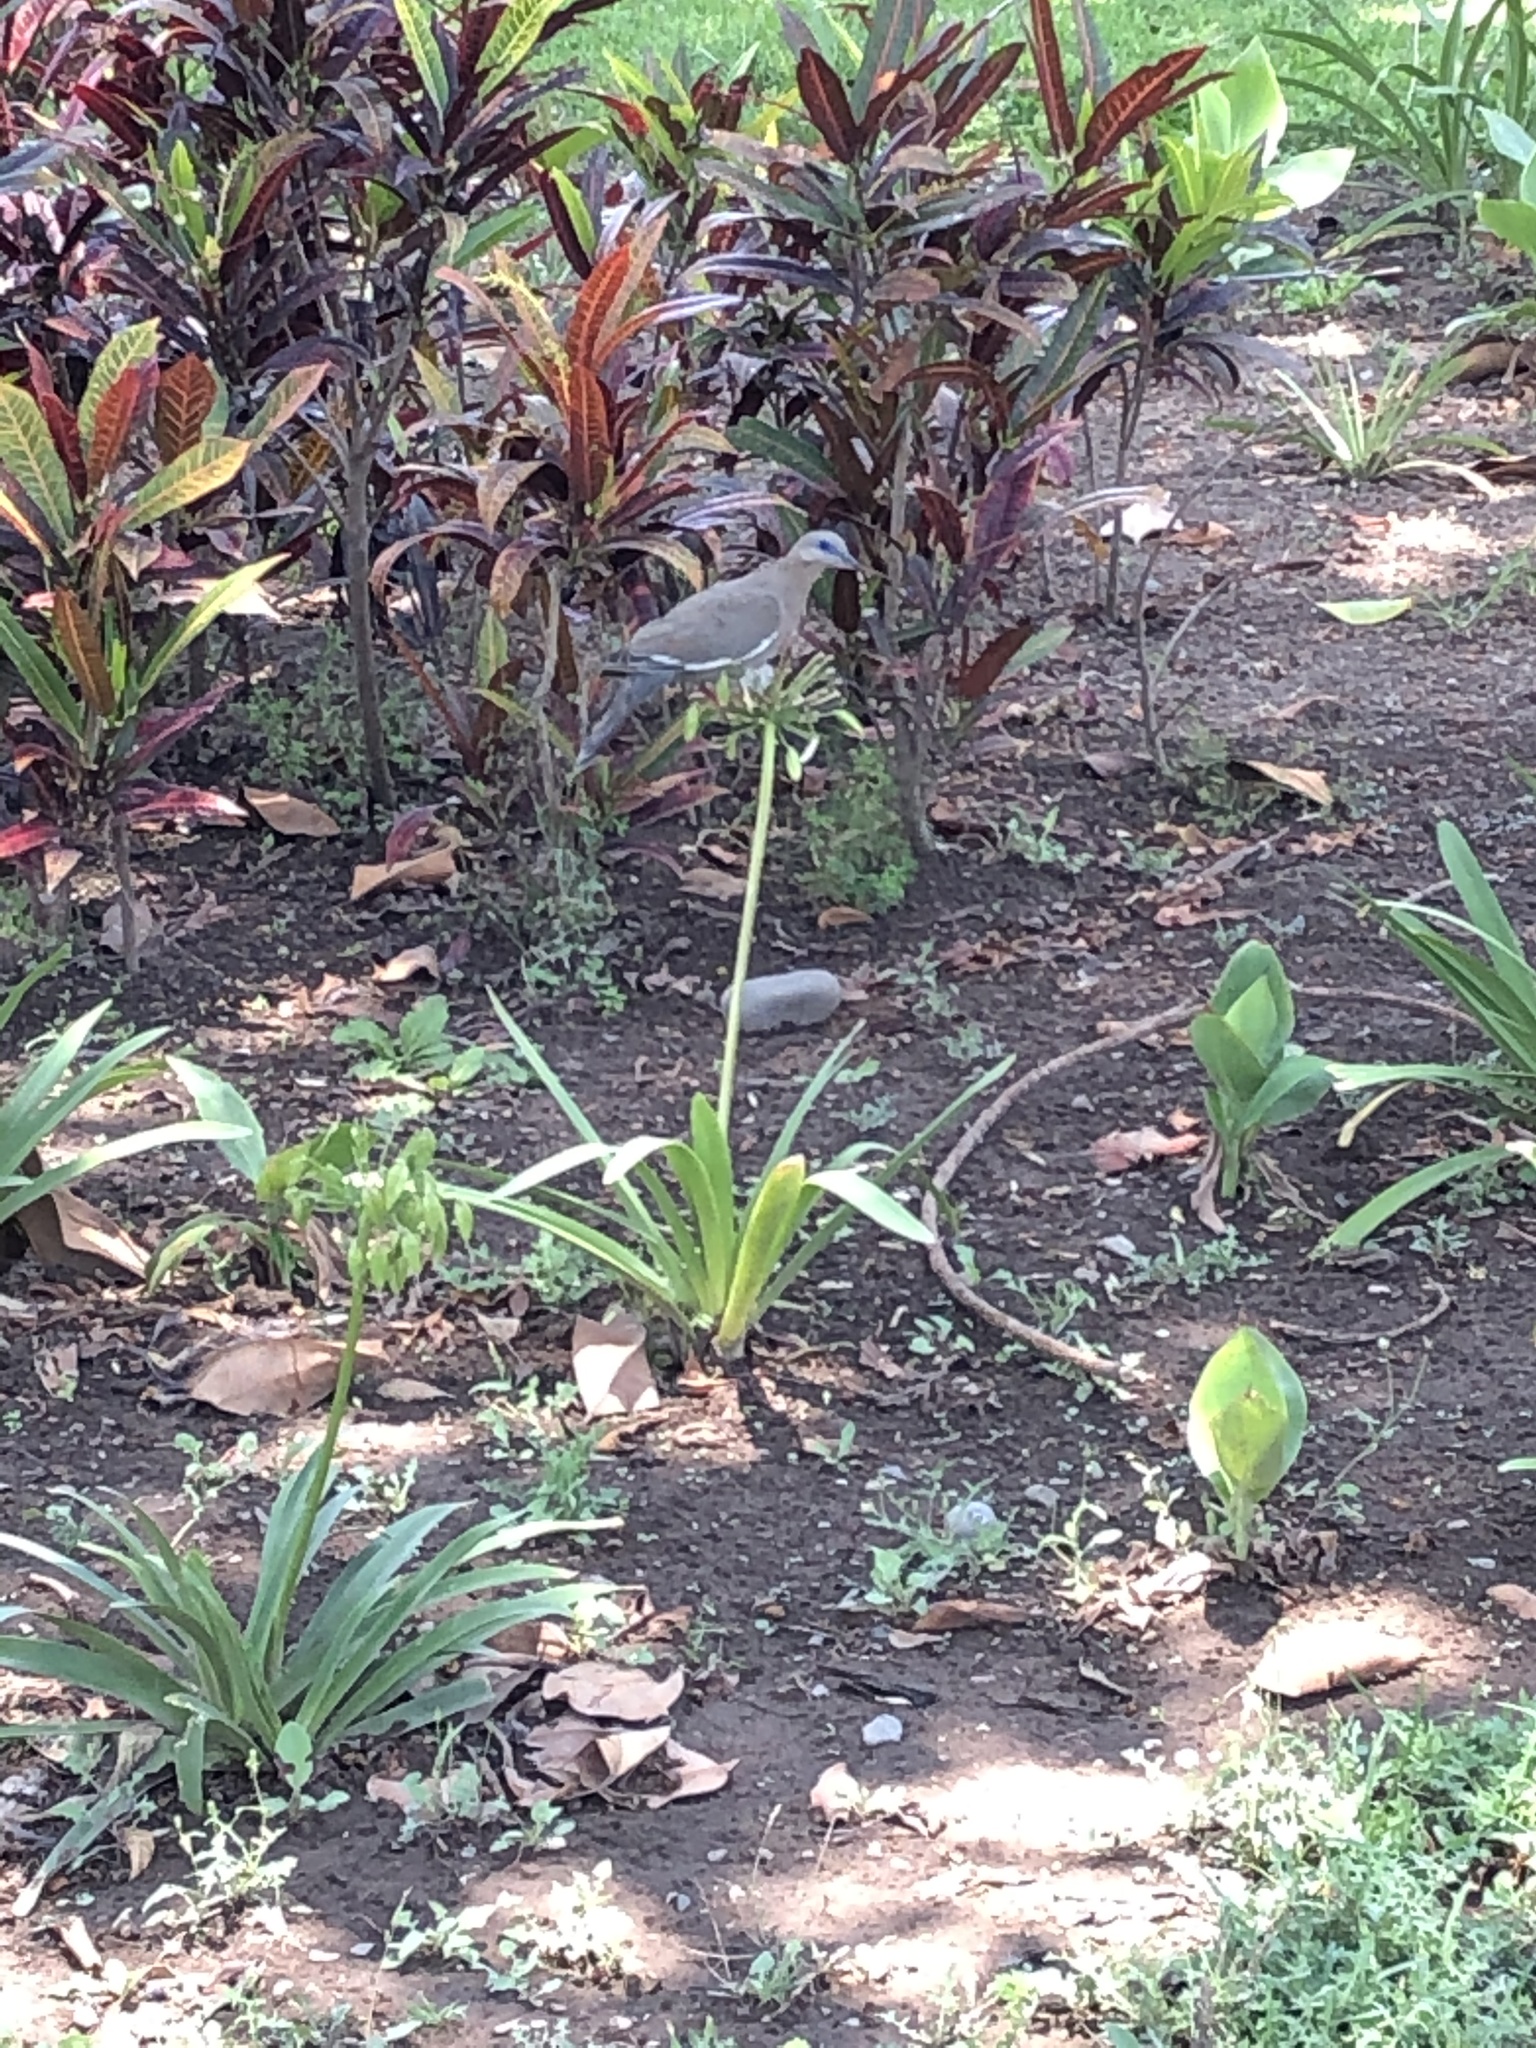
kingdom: Animalia
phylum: Chordata
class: Aves
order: Columbiformes
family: Columbidae
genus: Zenaida
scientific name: Zenaida meloda
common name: West peruvian dove
